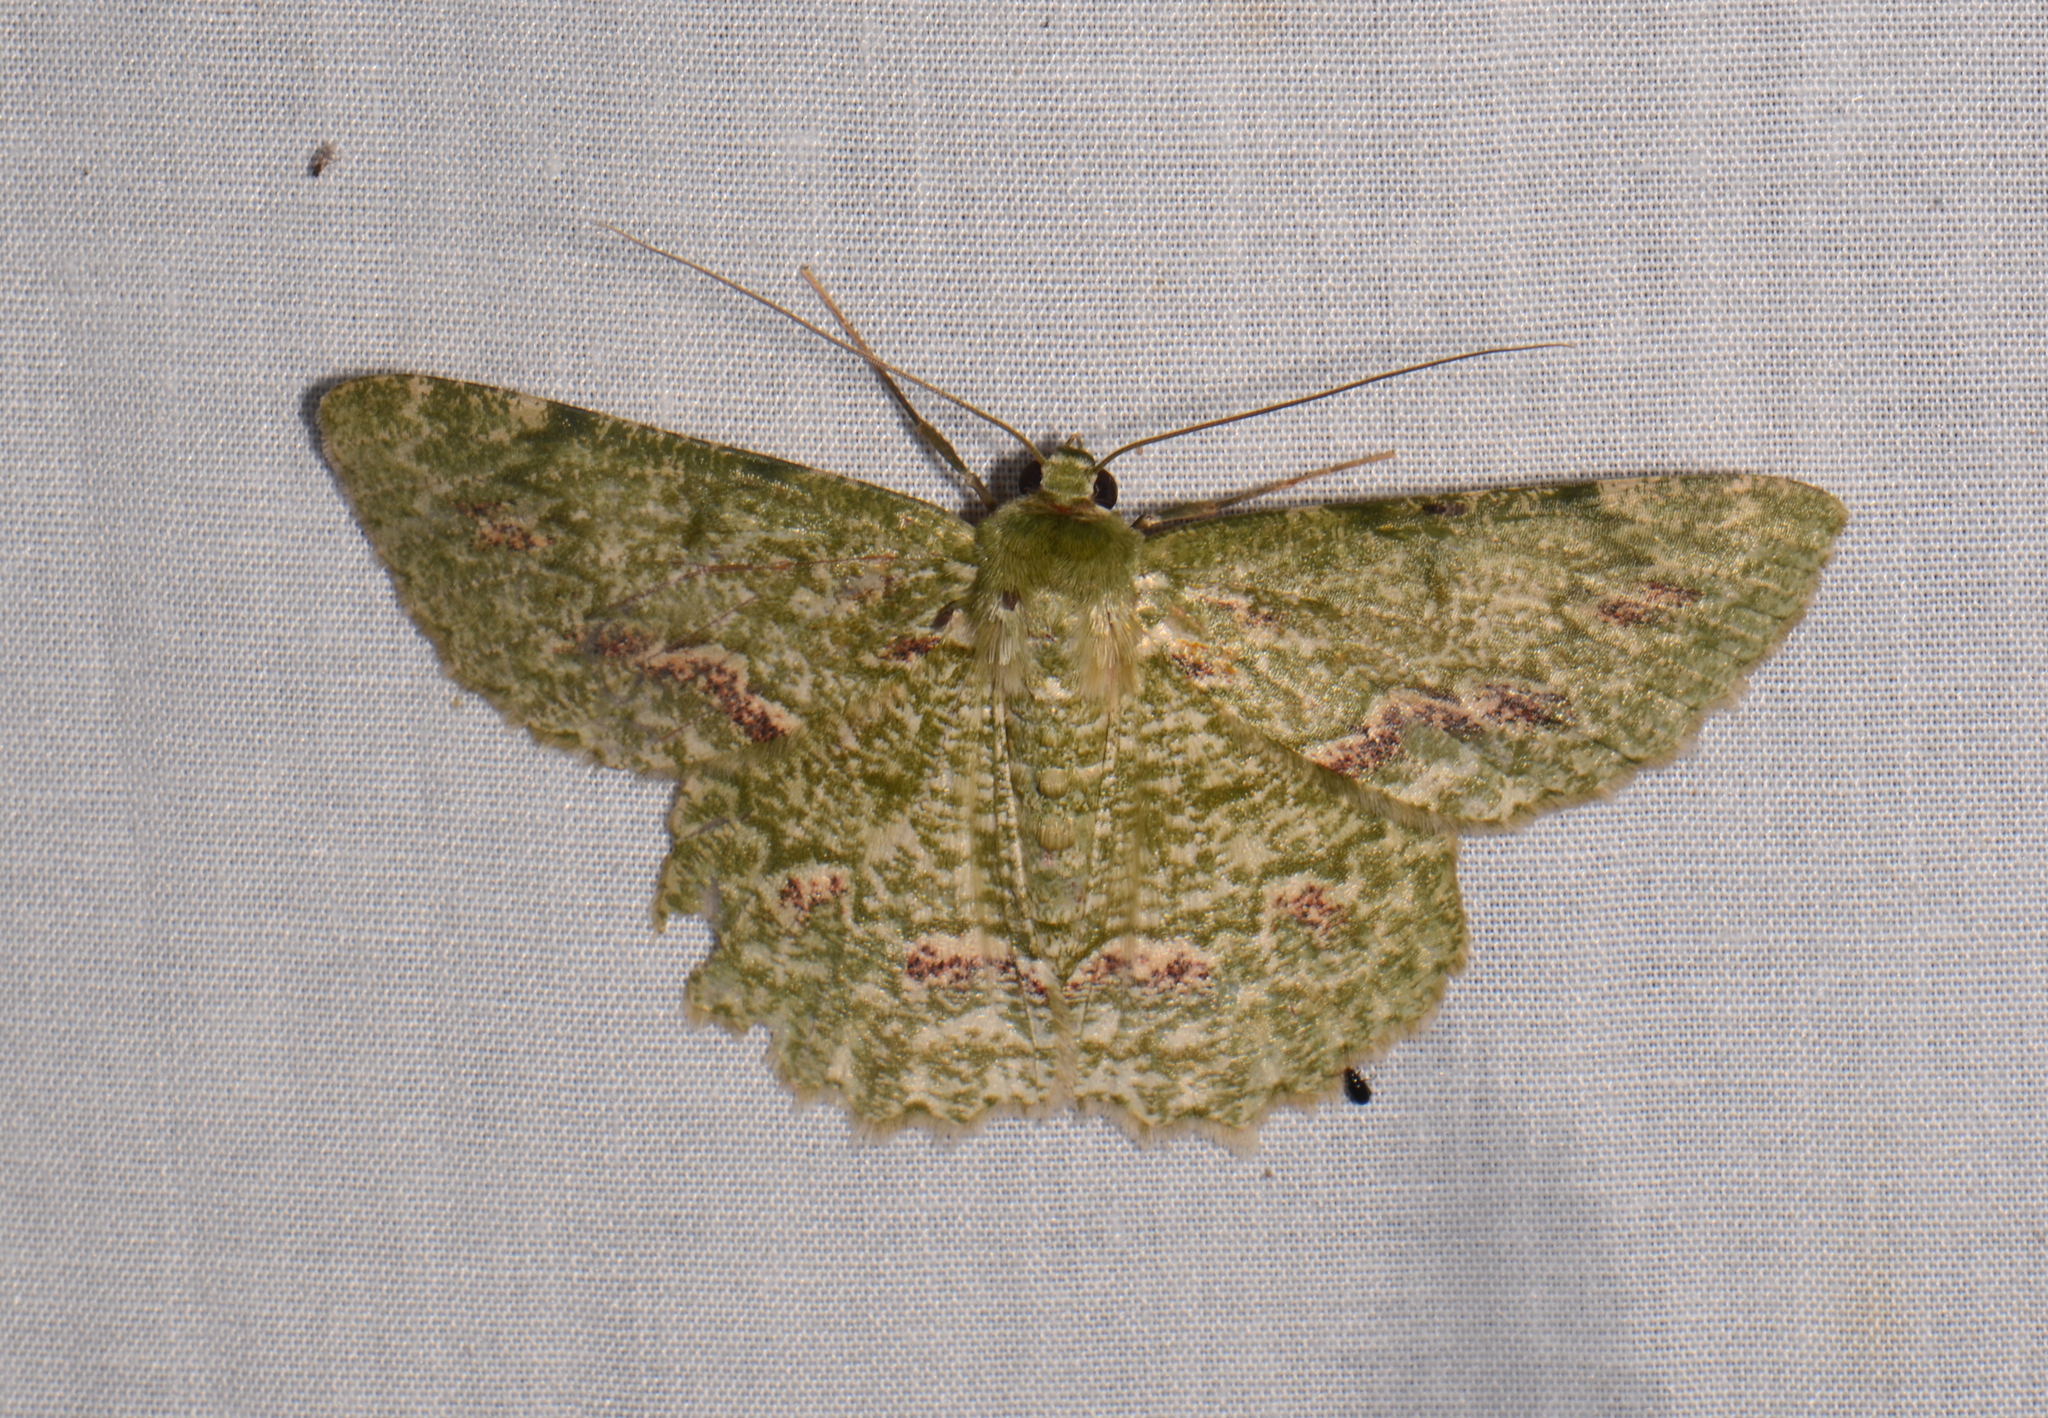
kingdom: Animalia
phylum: Arthropoda
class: Insecta
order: Lepidoptera
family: Geometridae
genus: Herochroma
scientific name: Herochroma flavibasalis
